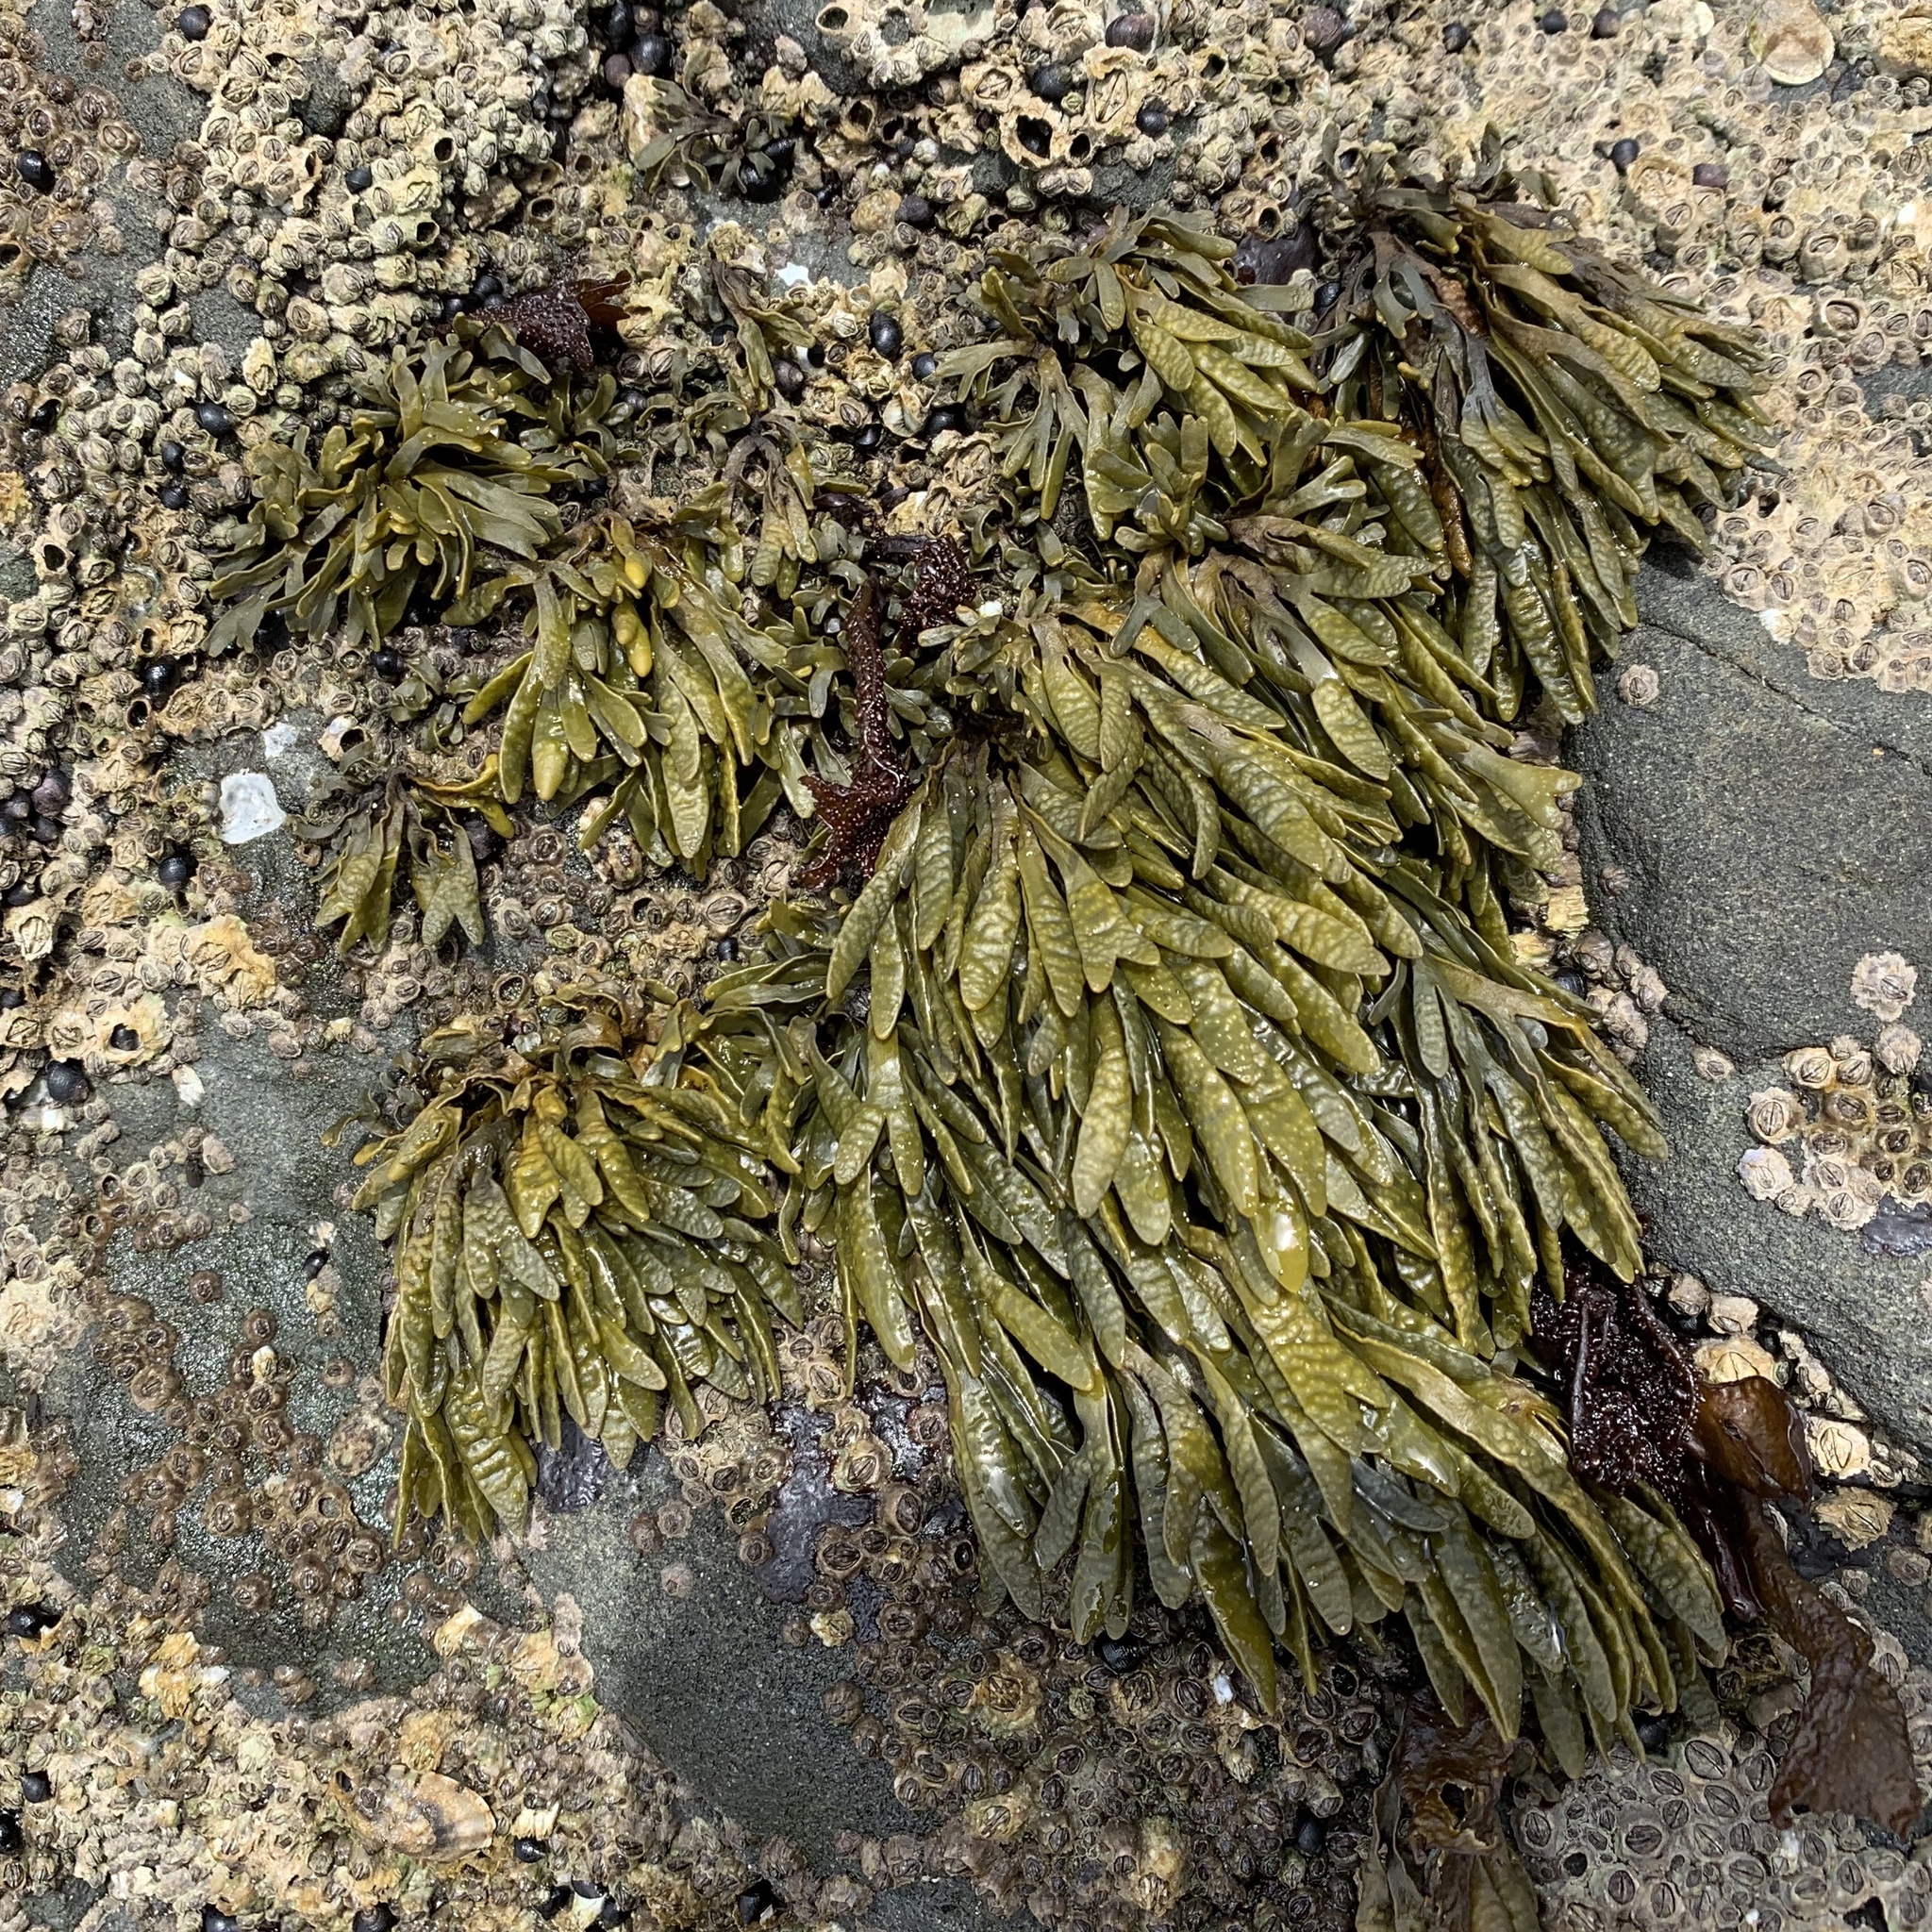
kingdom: Chromista
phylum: Ochrophyta
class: Phaeophyceae
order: Fucales
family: Fucaceae
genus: Pelvetiopsis
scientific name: Pelvetiopsis limitata
